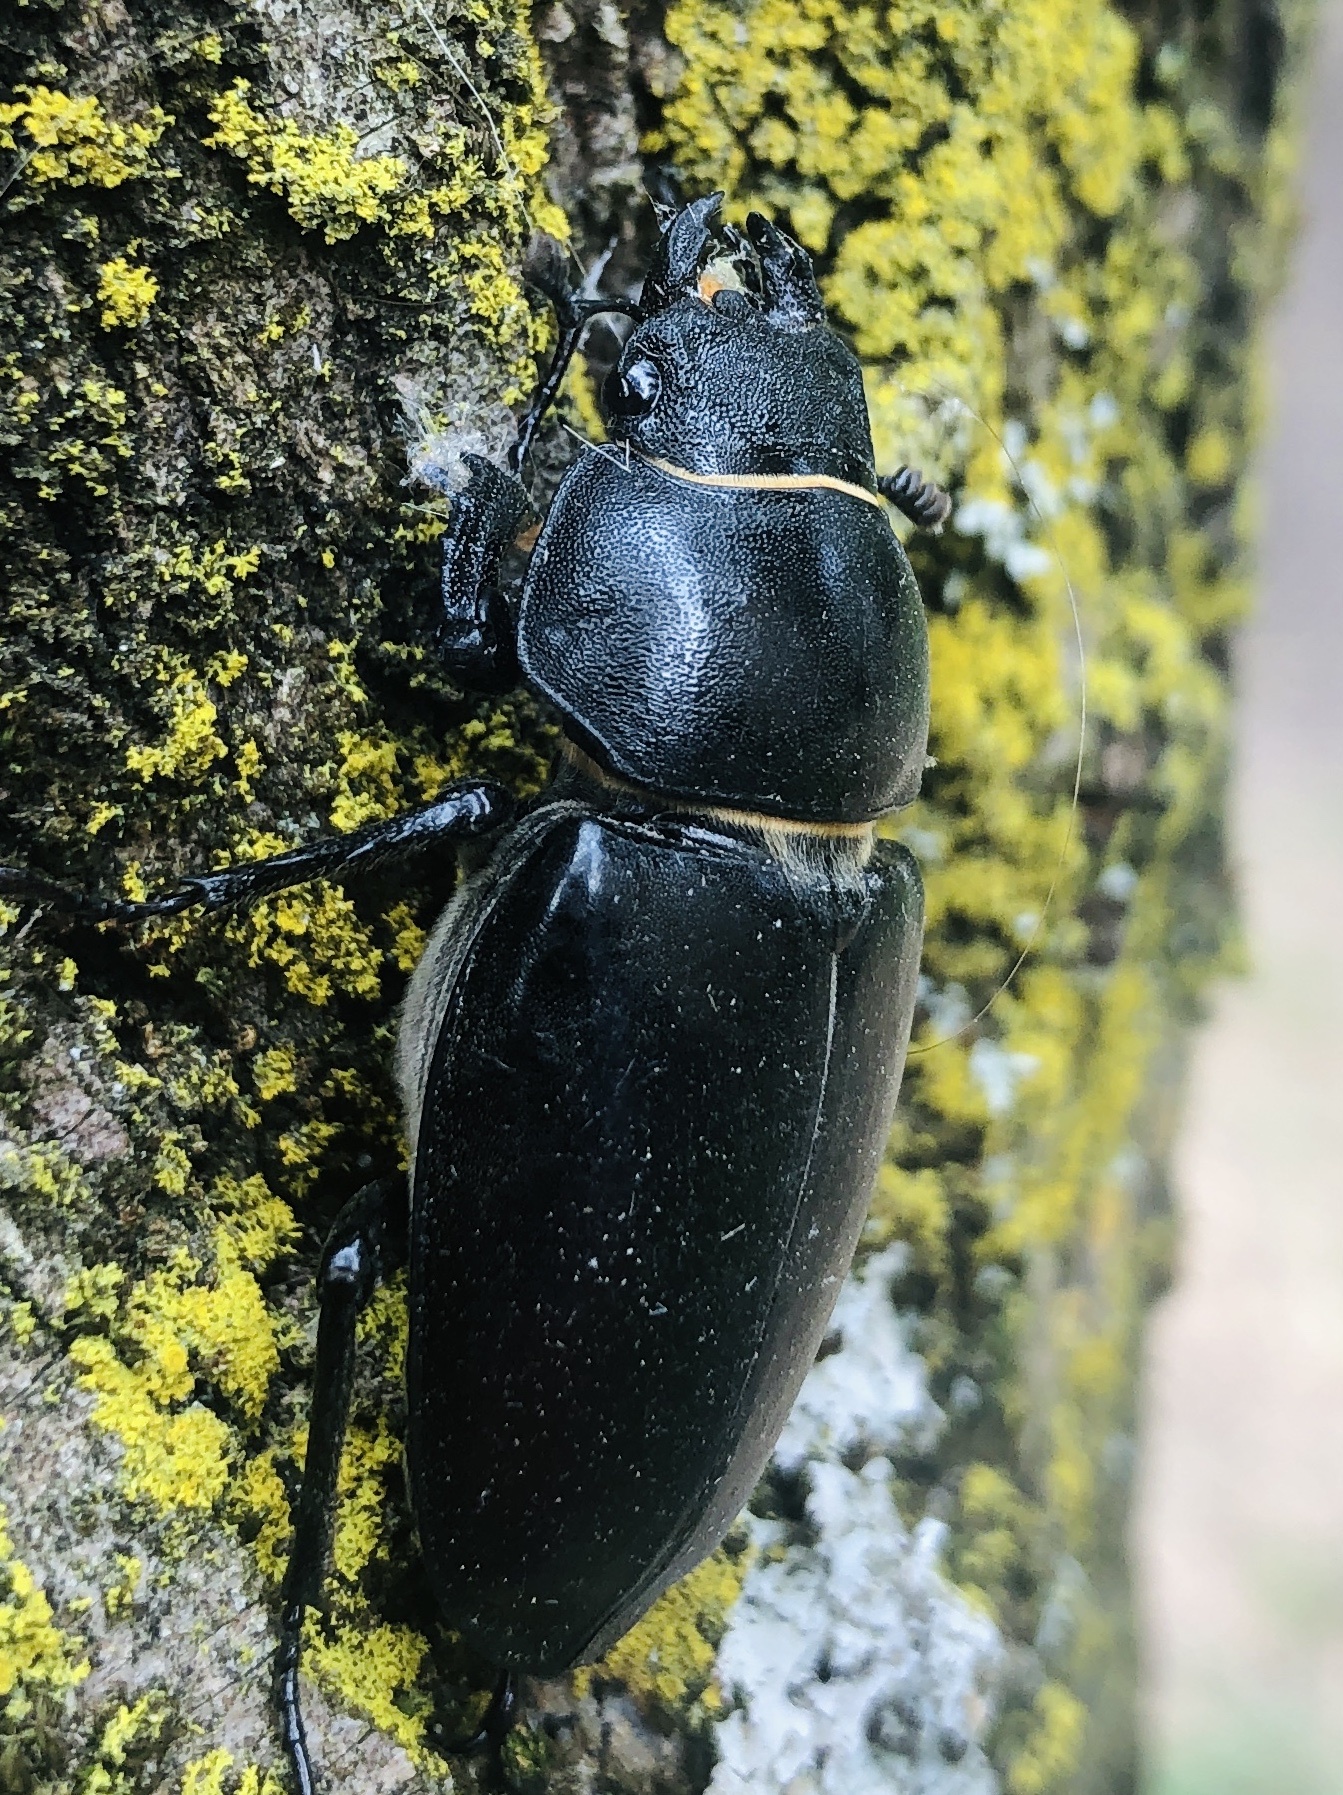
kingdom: Animalia
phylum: Arthropoda
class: Insecta
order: Coleoptera
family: Lucanidae
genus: Lucanus
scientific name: Lucanus cervus
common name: Stag beetle
